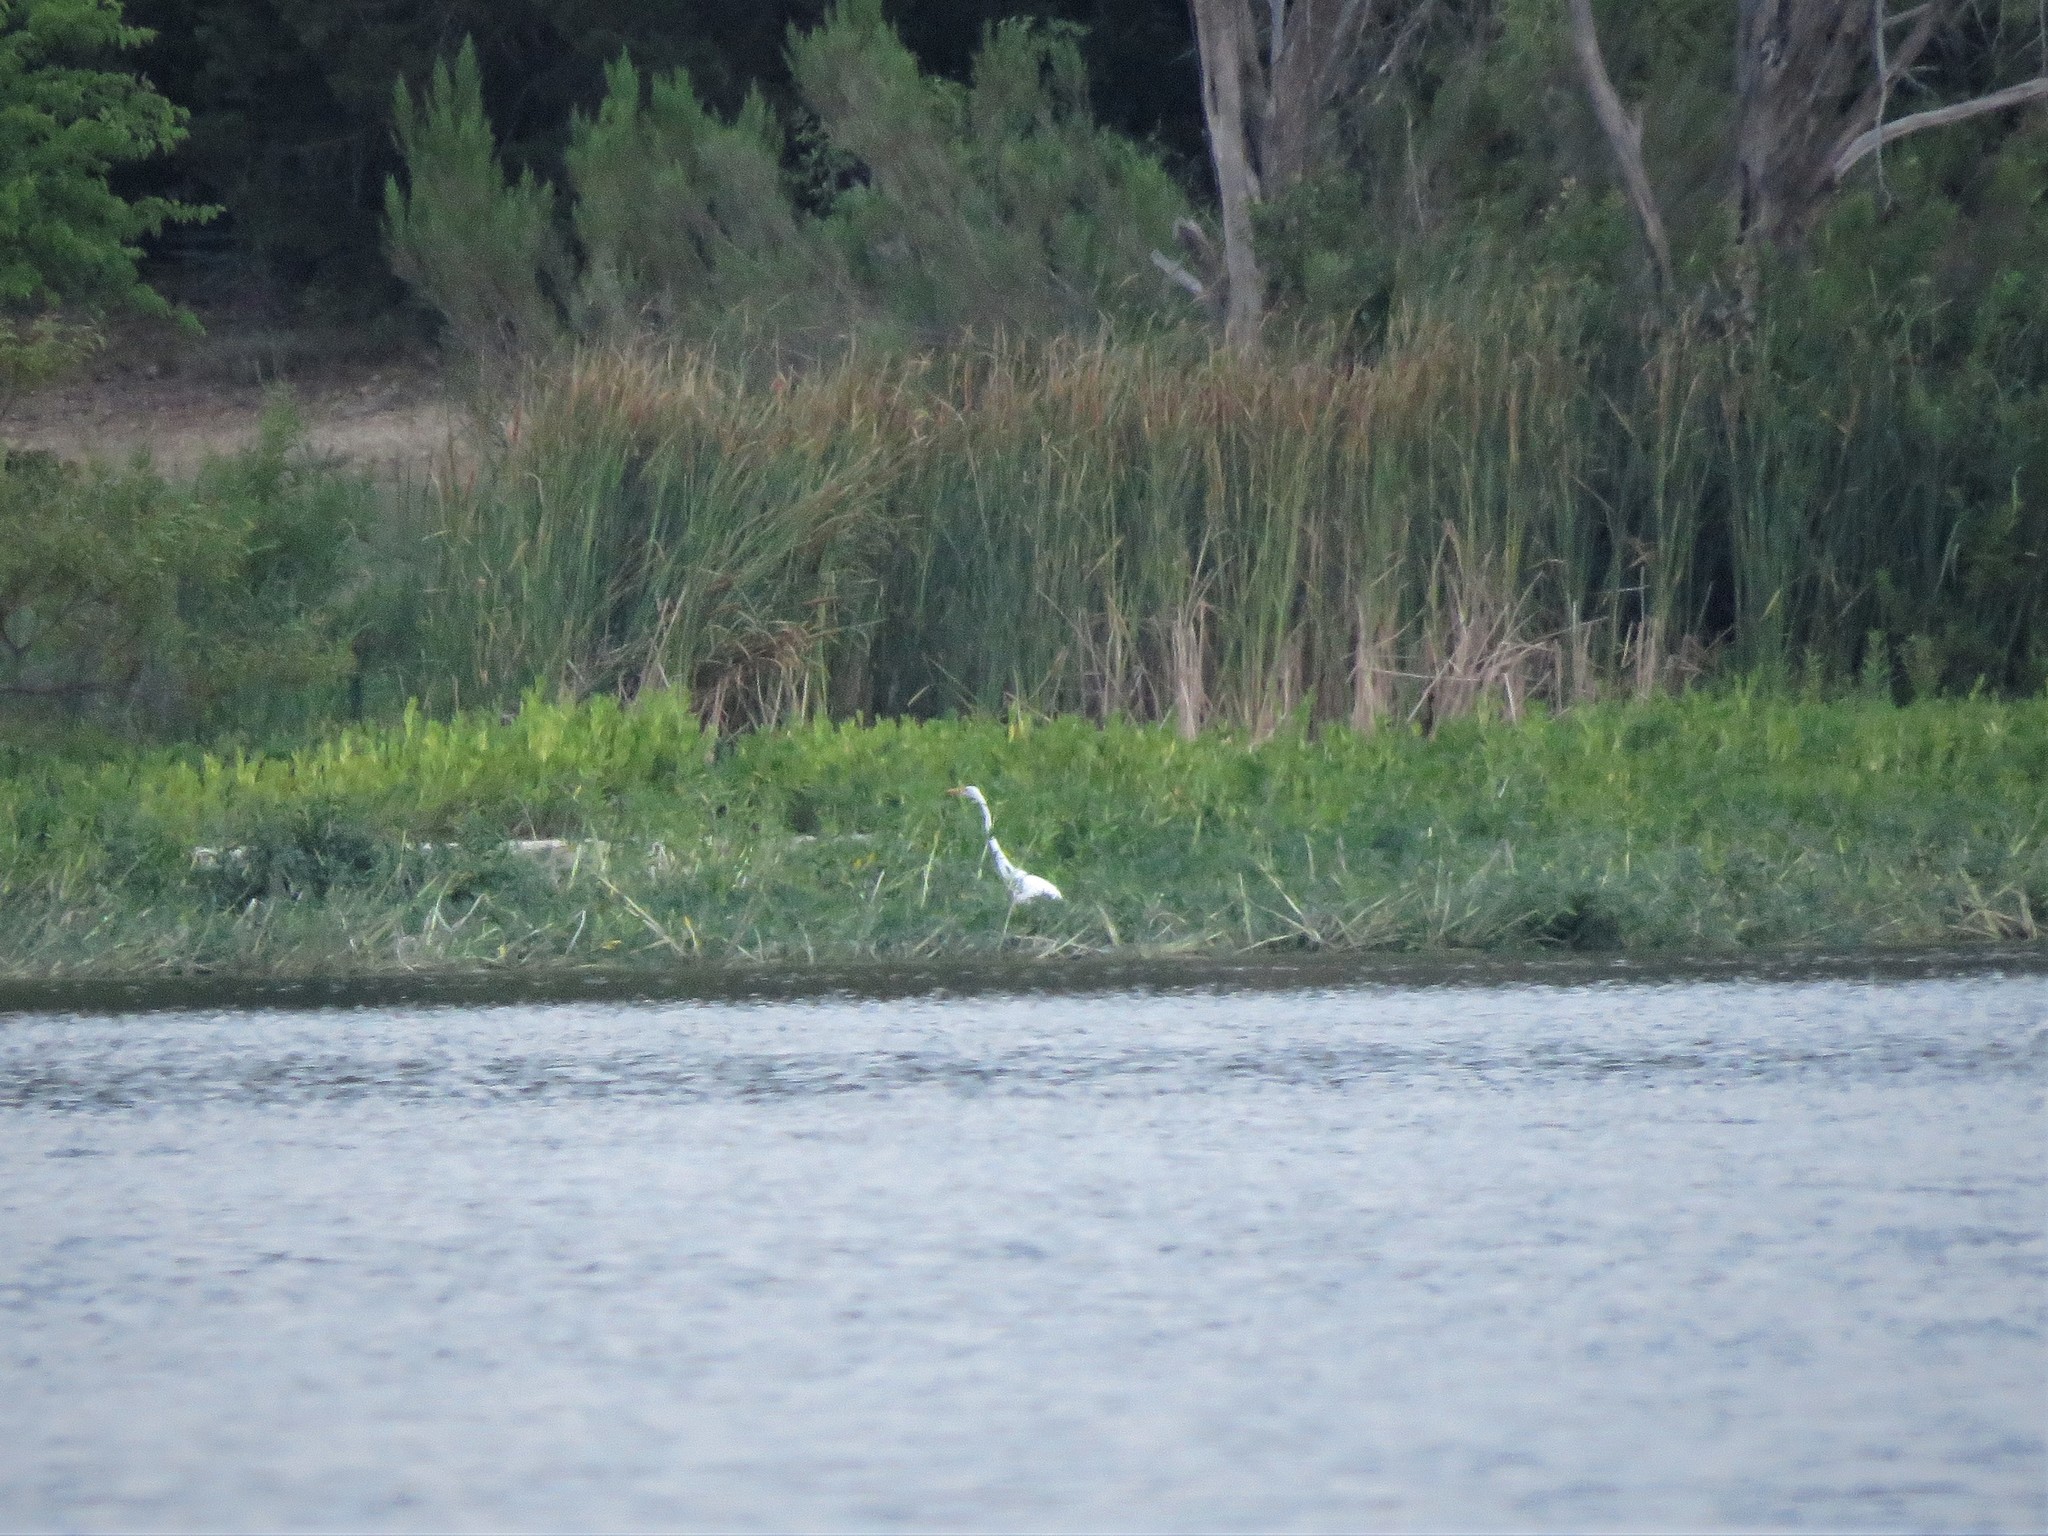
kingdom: Animalia
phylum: Chordata
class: Aves
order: Pelecaniformes
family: Ardeidae
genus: Ardea
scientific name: Ardea alba
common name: Great egret
